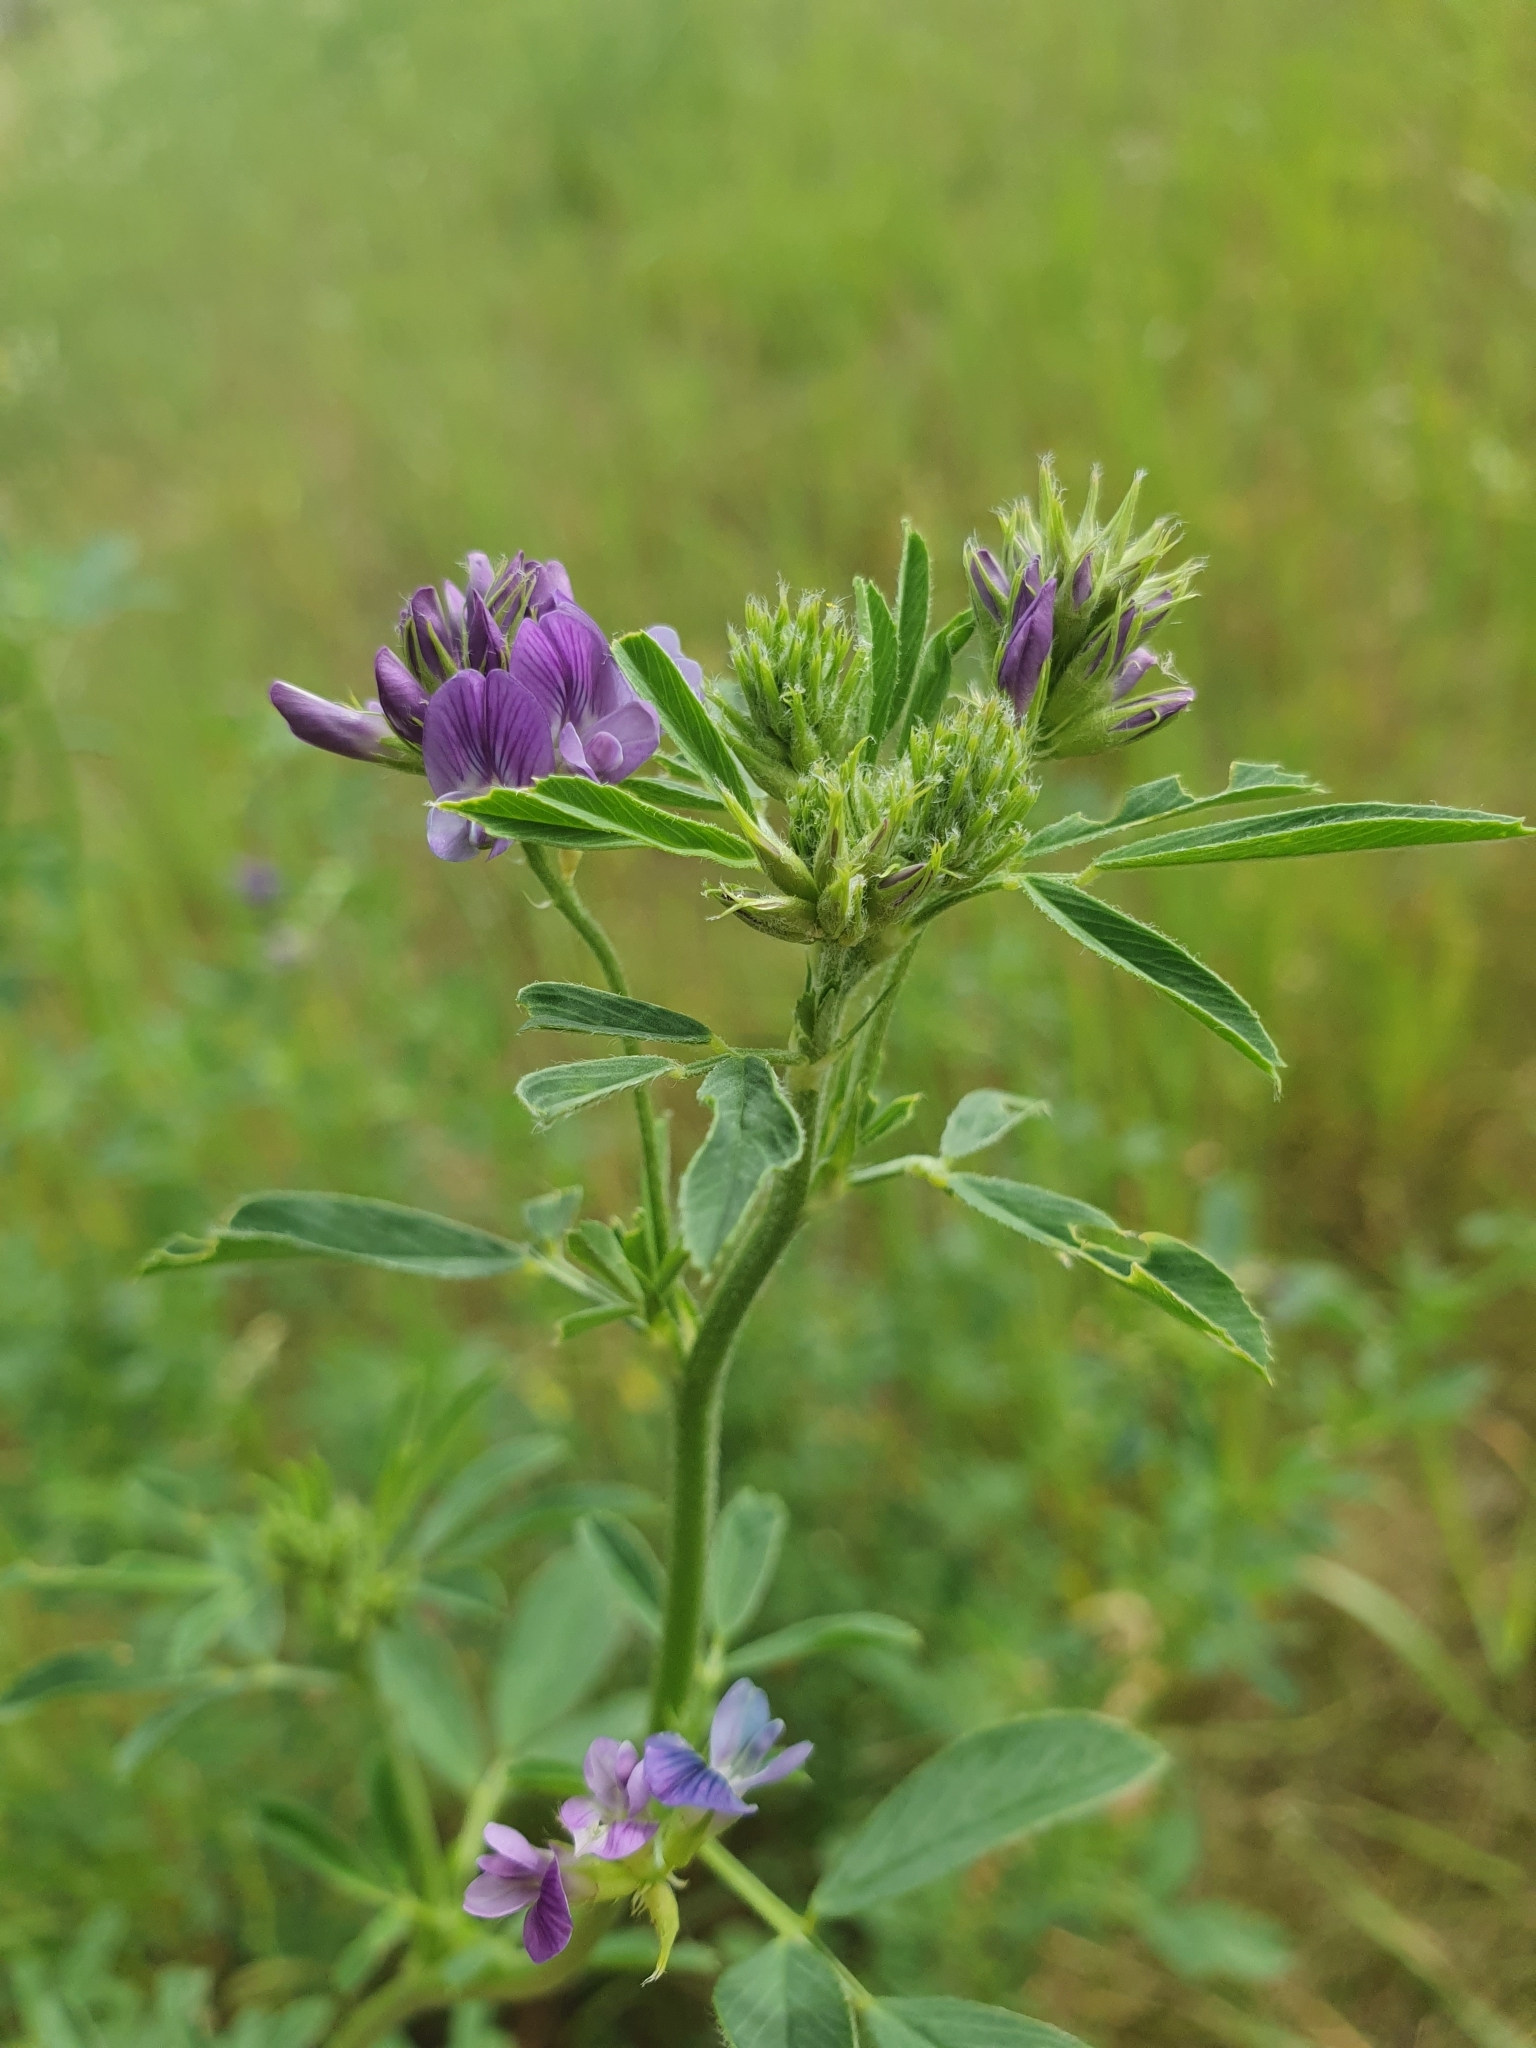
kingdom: Plantae
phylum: Tracheophyta
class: Magnoliopsida
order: Fabales
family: Fabaceae
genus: Medicago
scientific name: Medicago sativa
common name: Alfalfa
